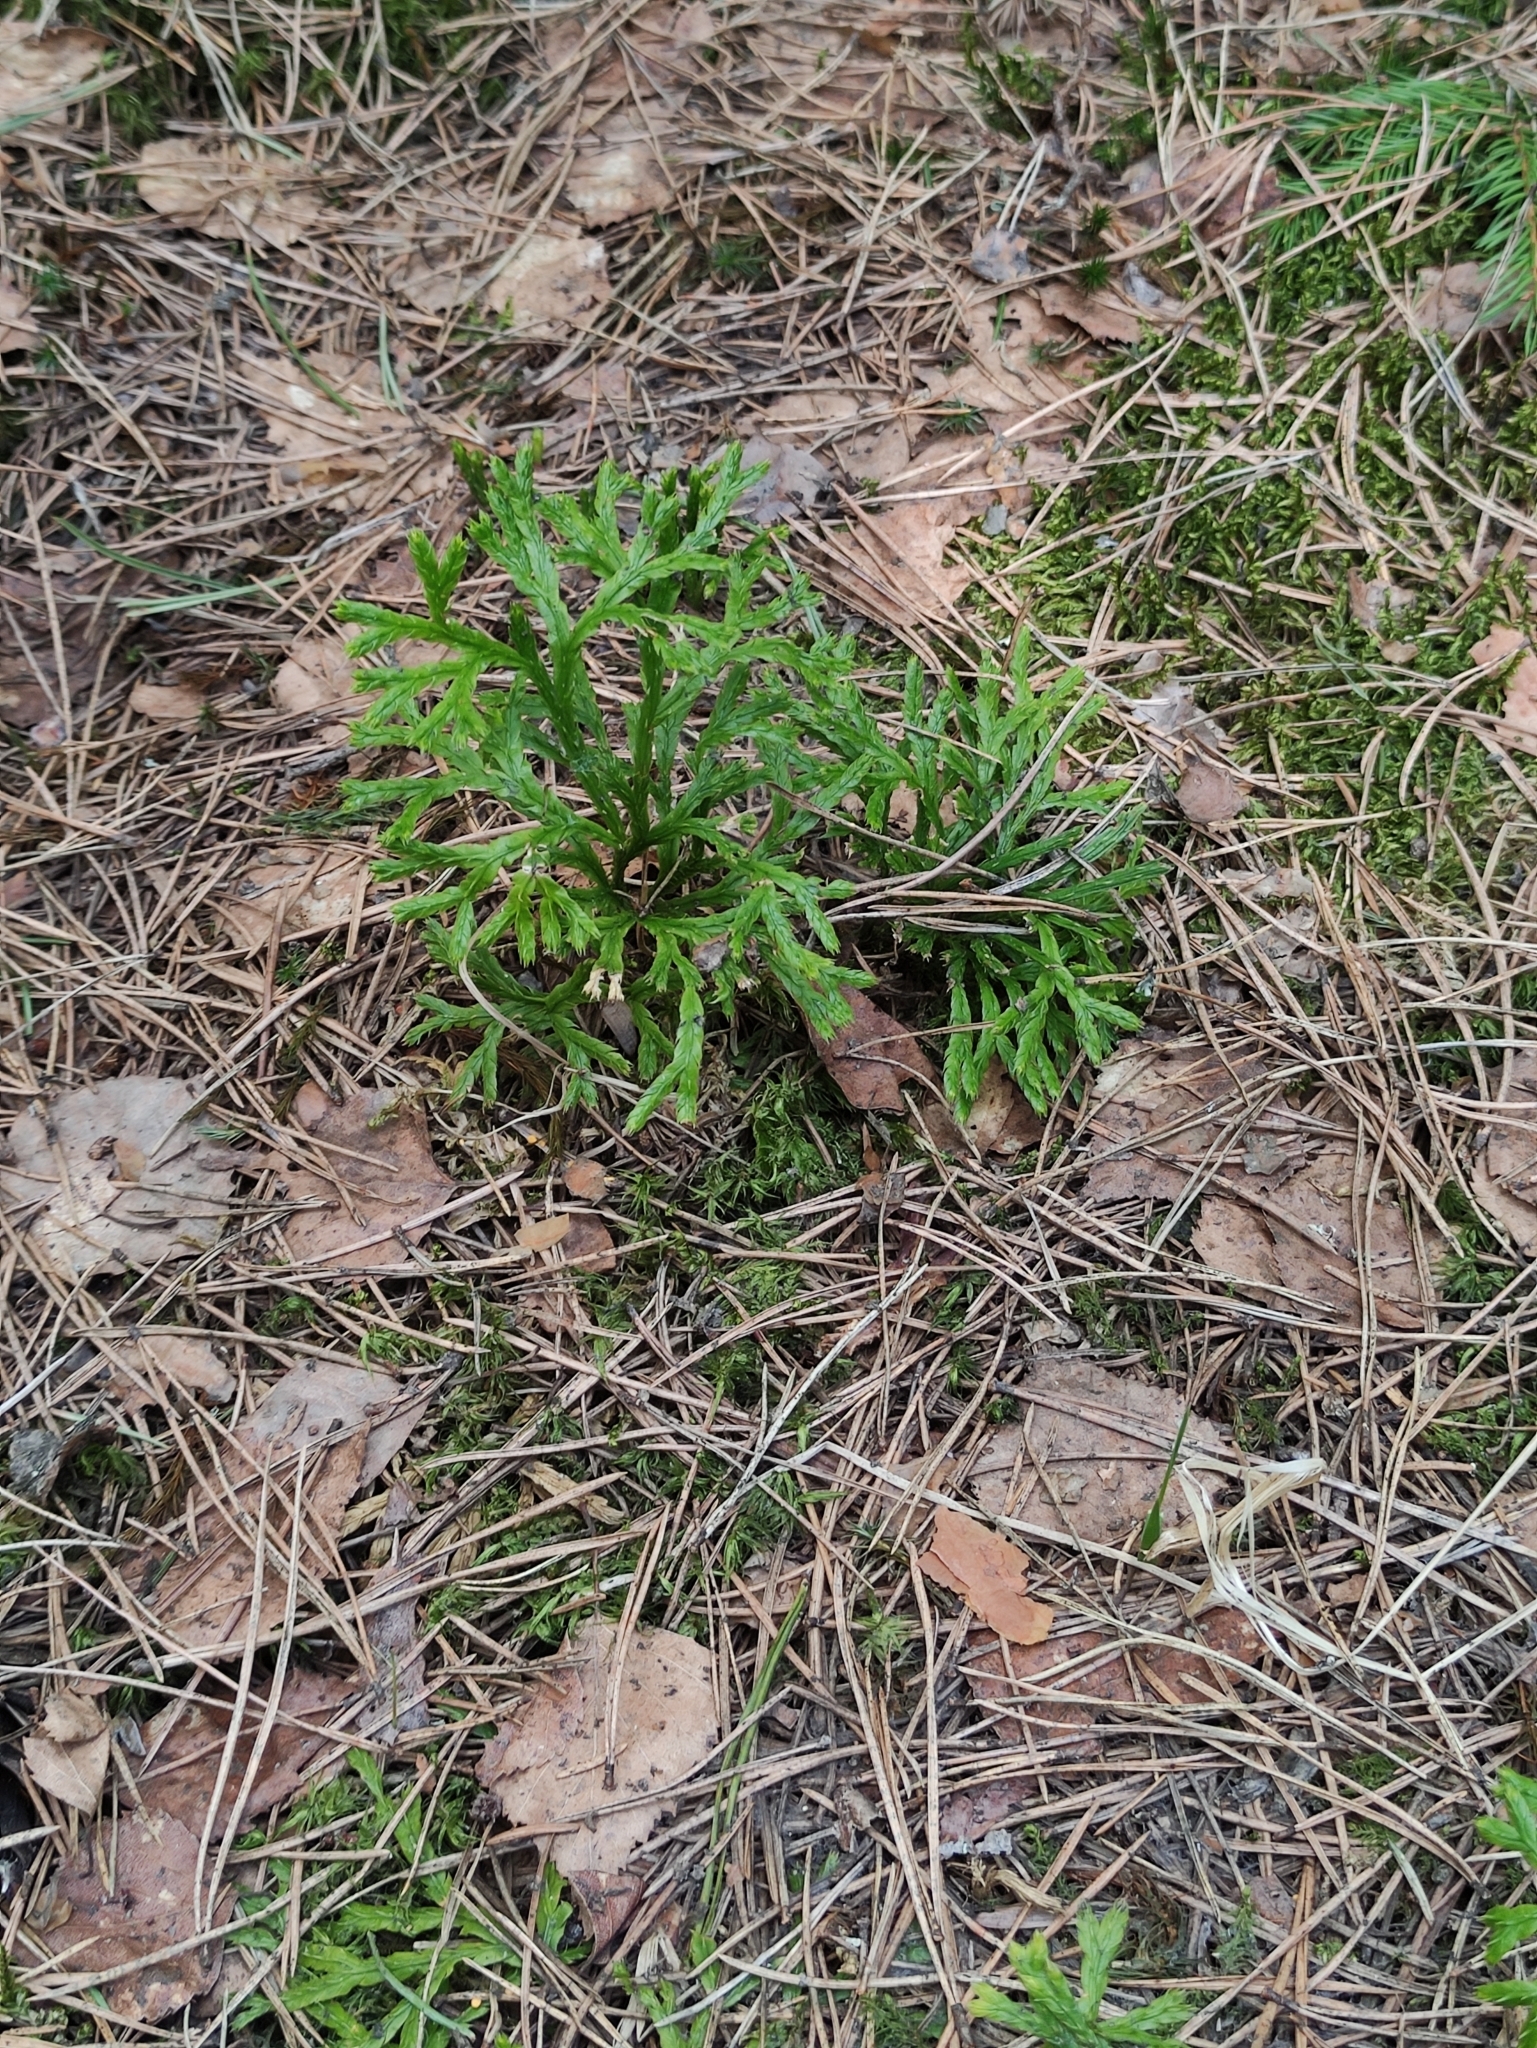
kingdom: Plantae
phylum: Tracheophyta
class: Lycopodiopsida
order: Lycopodiales
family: Lycopodiaceae
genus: Diphasiastrum
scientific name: Diphasiastrum complanatum
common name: Northern running-pine
